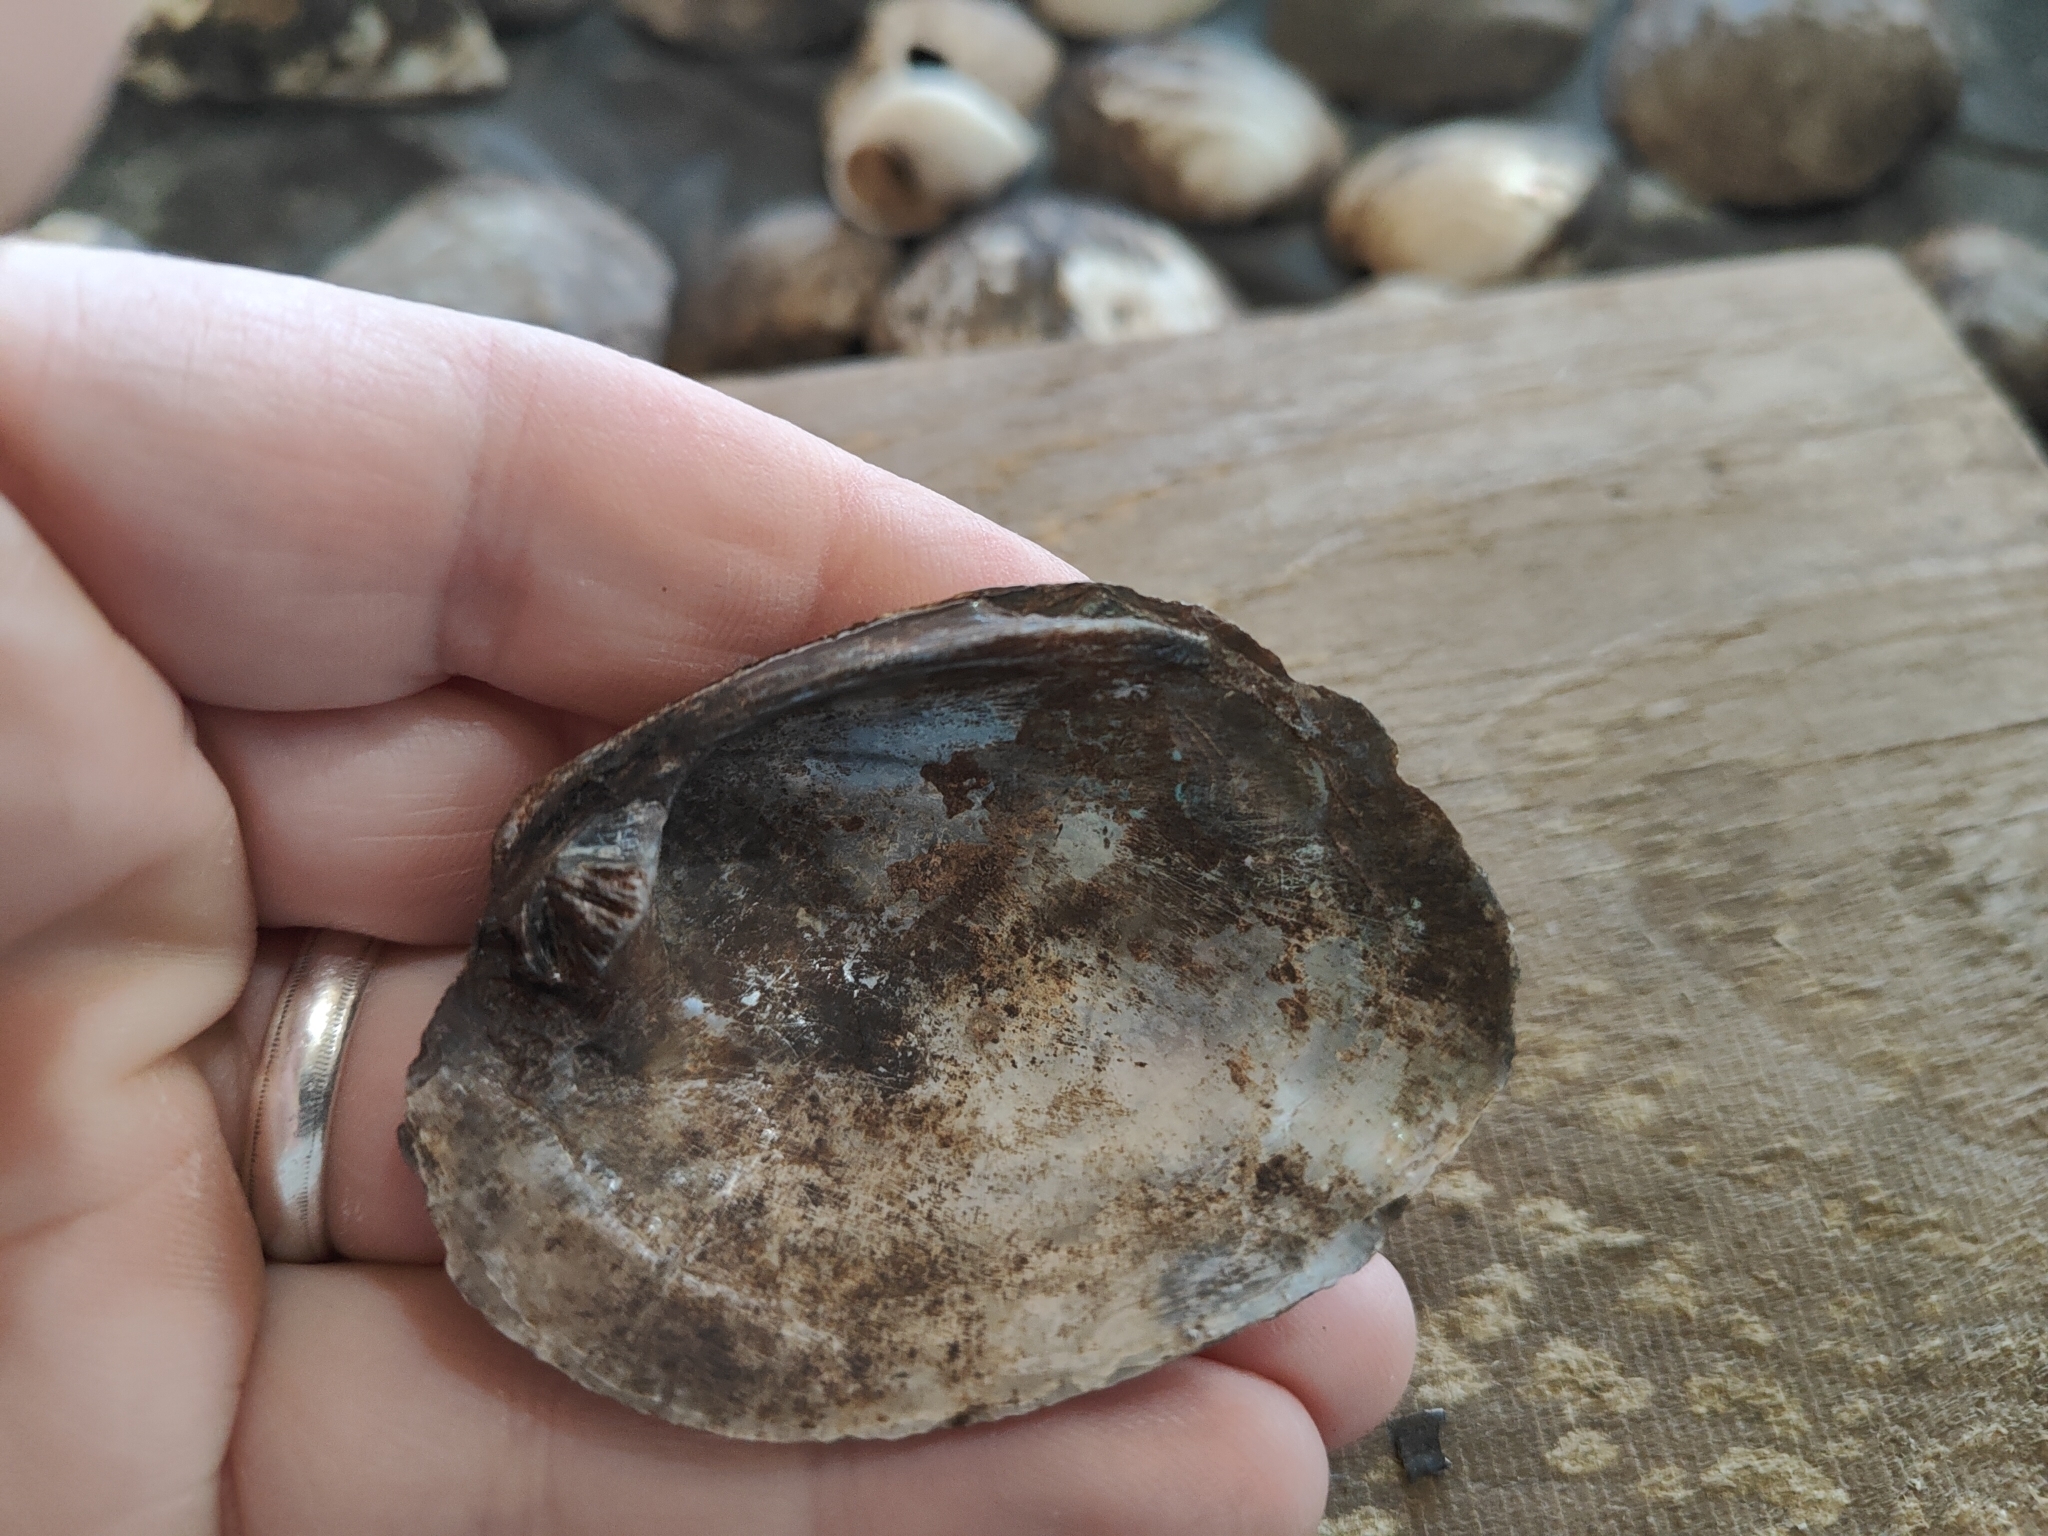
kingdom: Animalia
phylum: Mollusca
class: Bivalvia
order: Unionida
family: Unionidae
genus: Amblema
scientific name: Amblema plicata
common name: Threeridge
